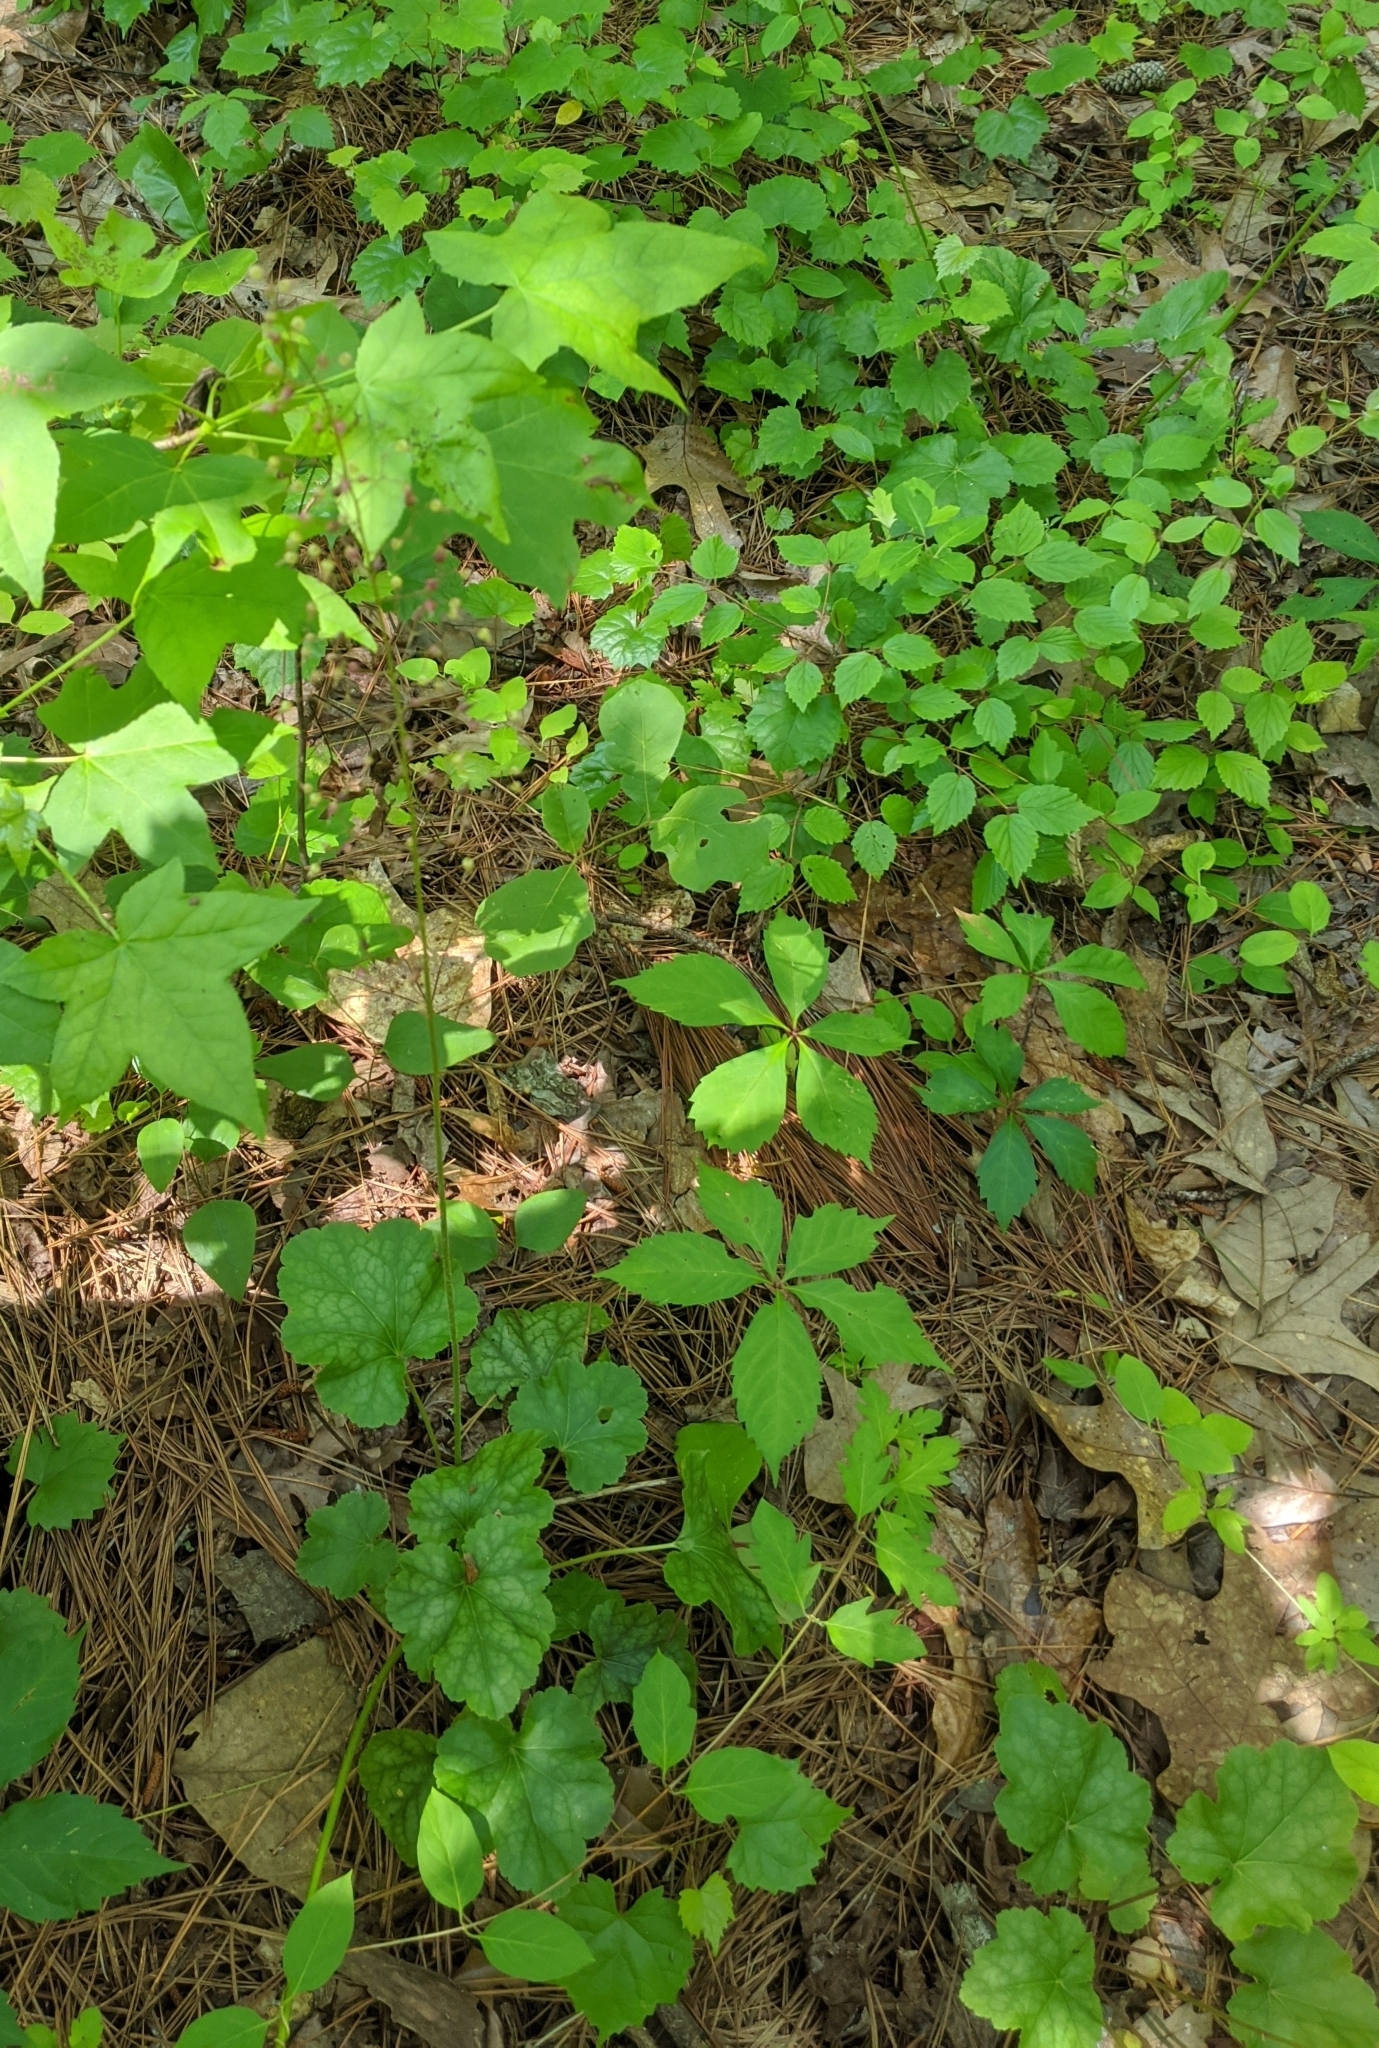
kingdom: Plantae
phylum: Tracheophyta
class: Magnoliopsida
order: Saxifragales
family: Saxifragaceae
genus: Heuchera
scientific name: Heuchera americana
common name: Alumroot
